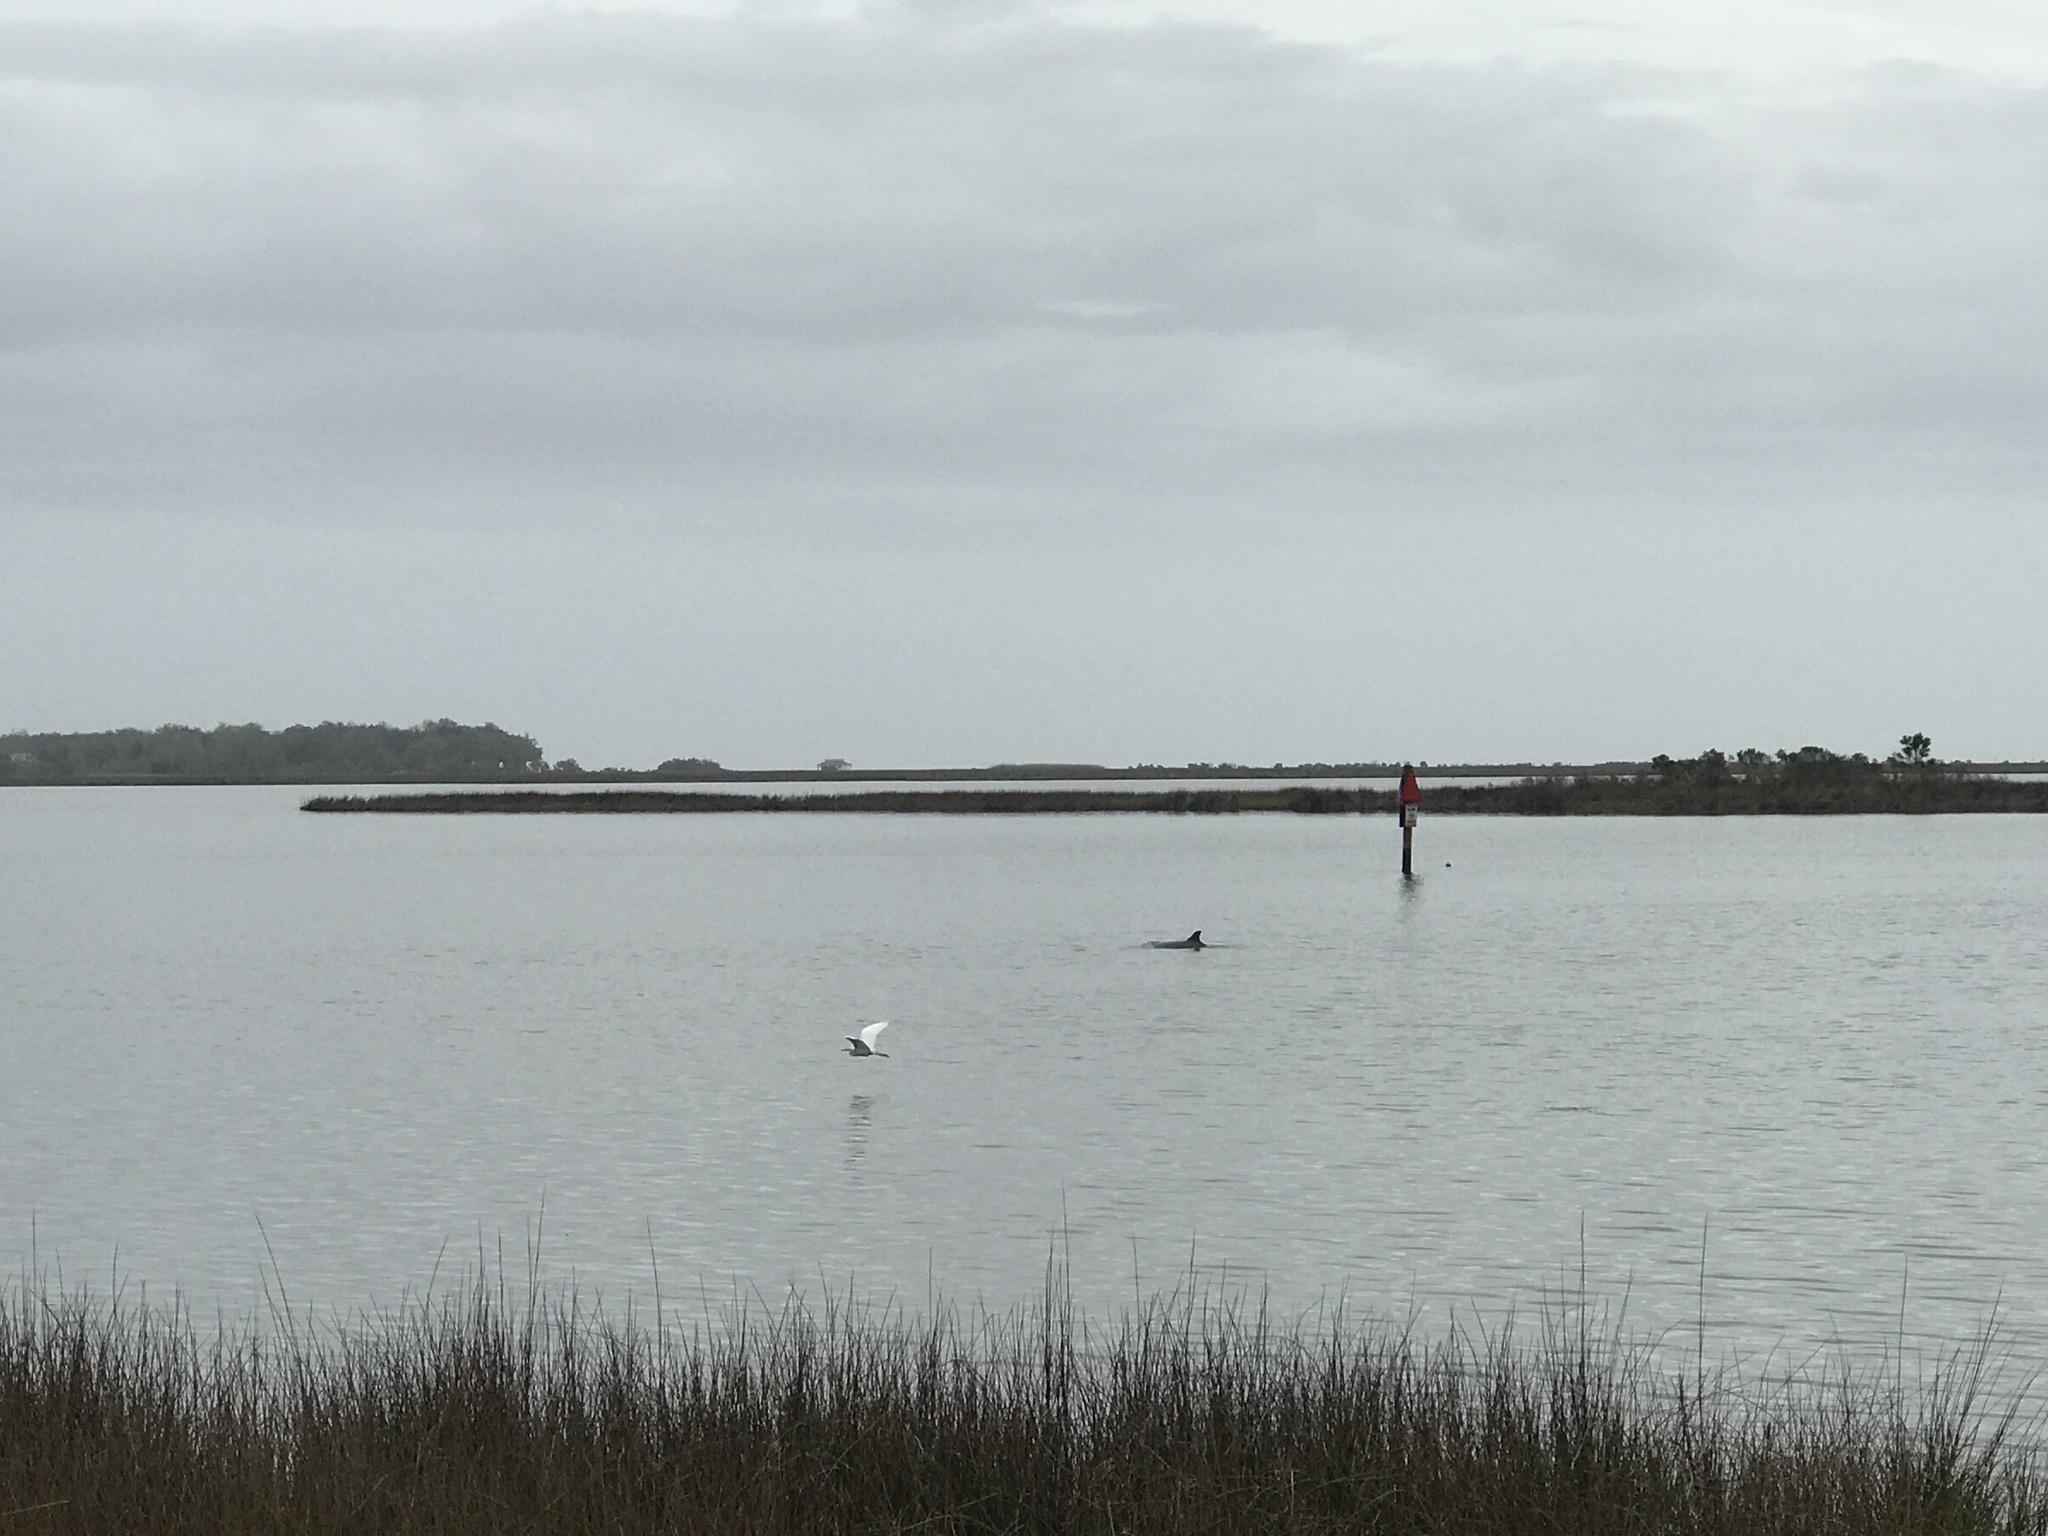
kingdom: Animalia
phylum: Chordata
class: Mammalia
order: Cetacea
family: Delphinidae
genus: Tursiops
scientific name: Tursiops truncatus
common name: Bottlenose dolphin
